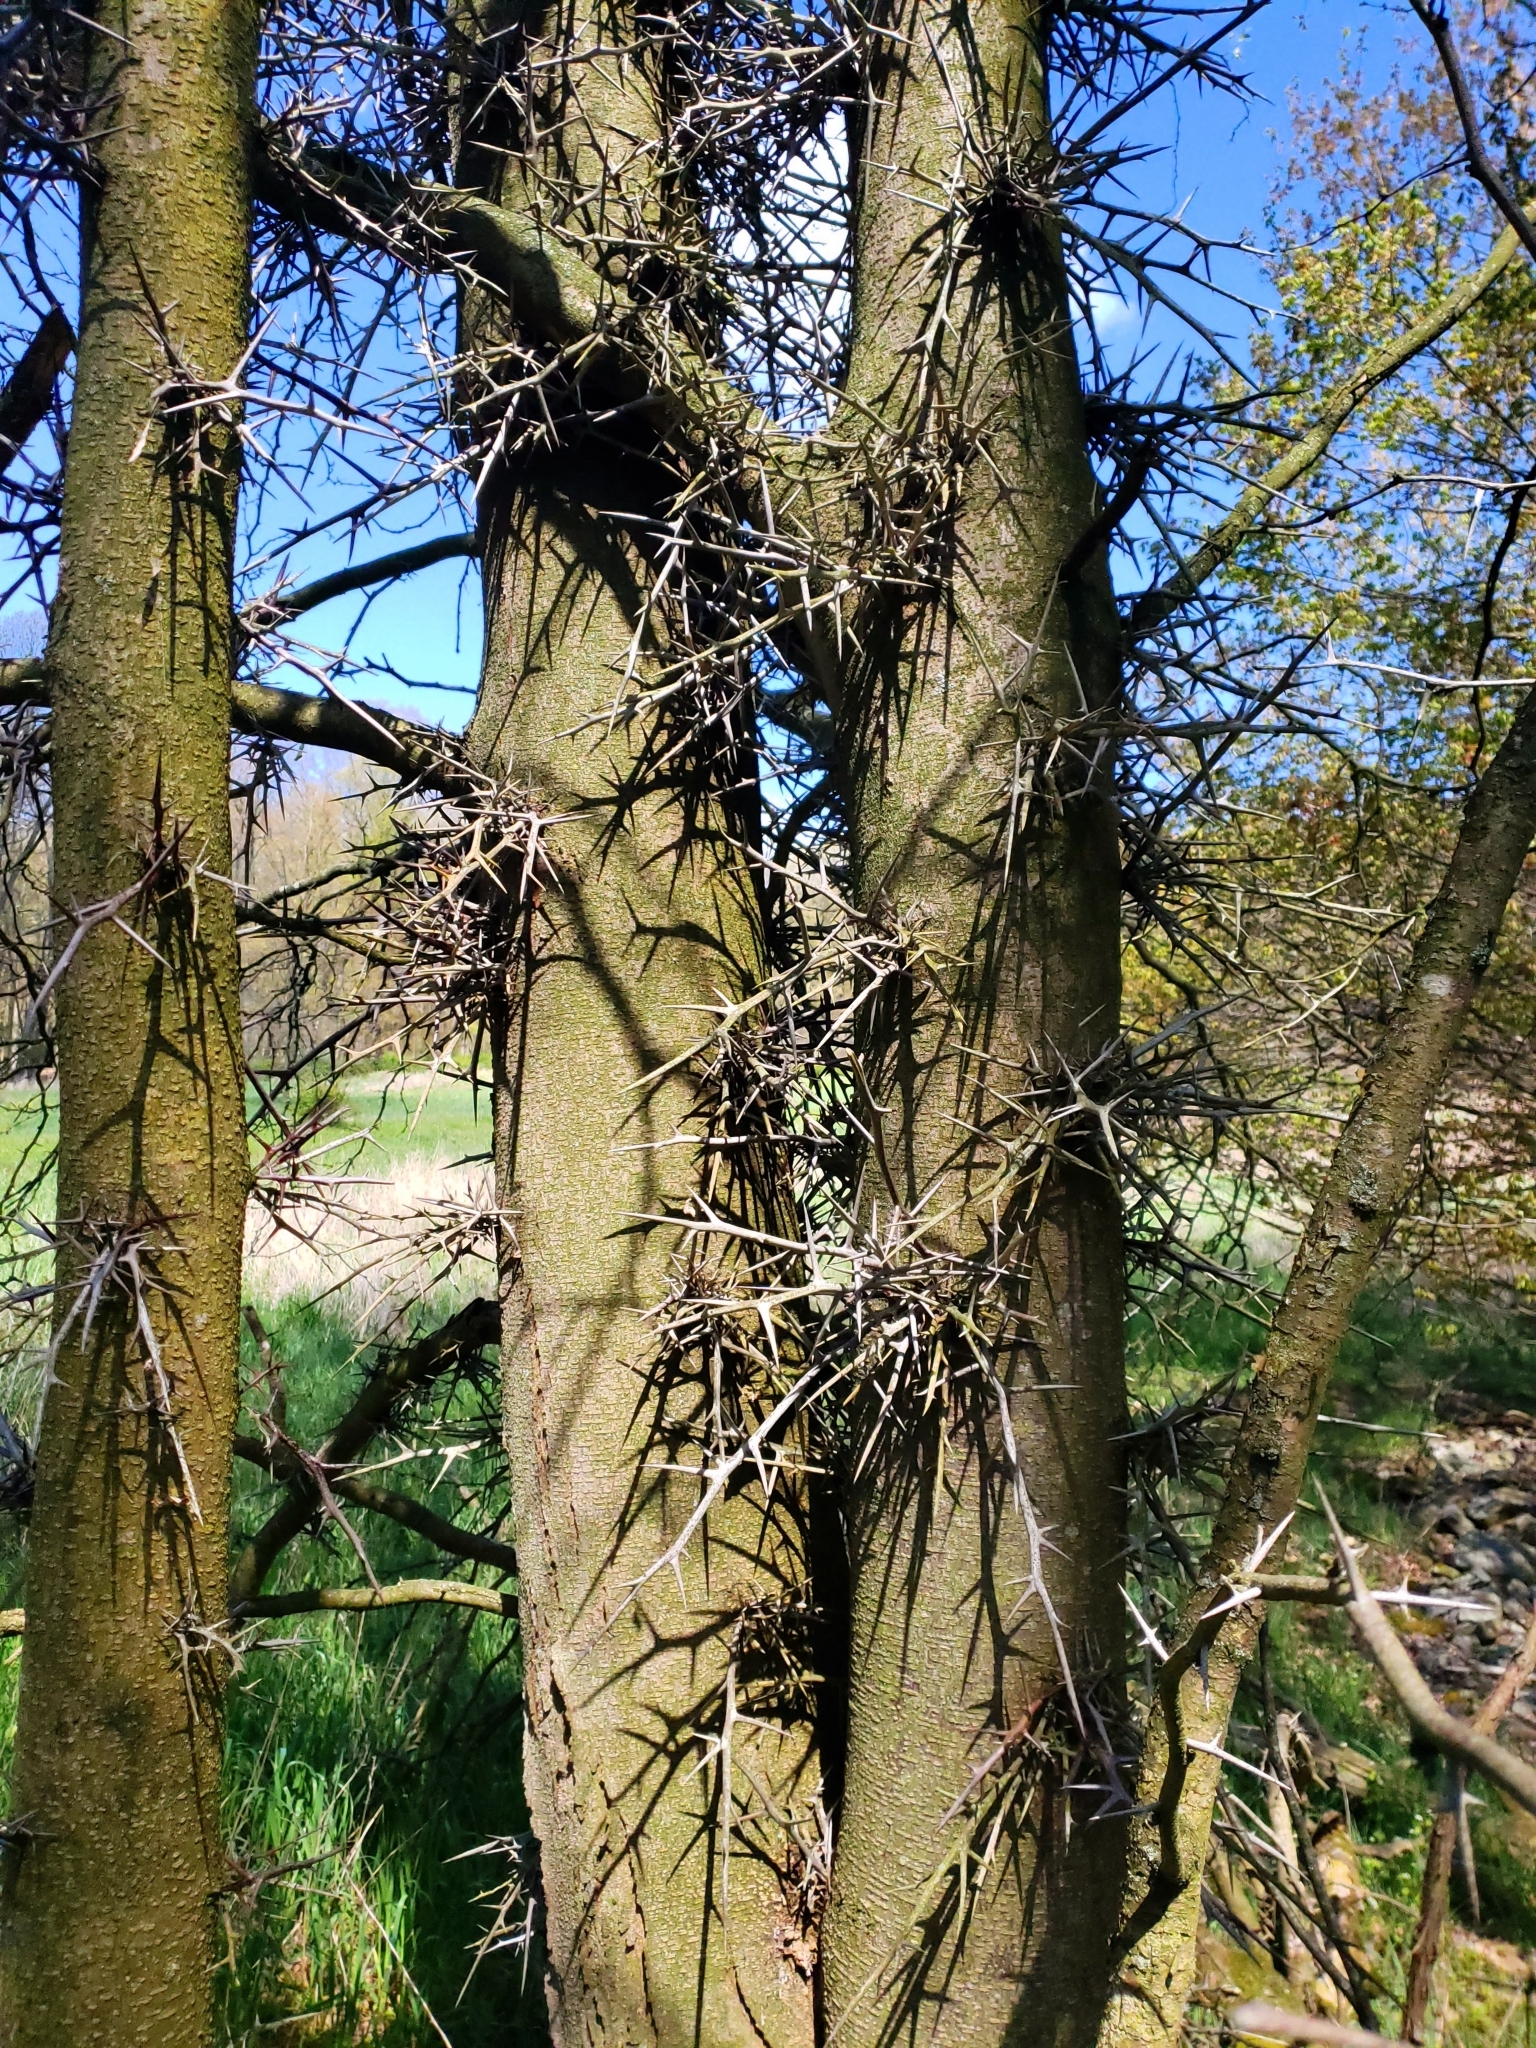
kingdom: Plantae
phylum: Tracheophyta
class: Magnoliopsida
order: Fabales
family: Fabaceae
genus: Gleditsia
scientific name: Gleditsia triacanthos
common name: Common honeylocust
